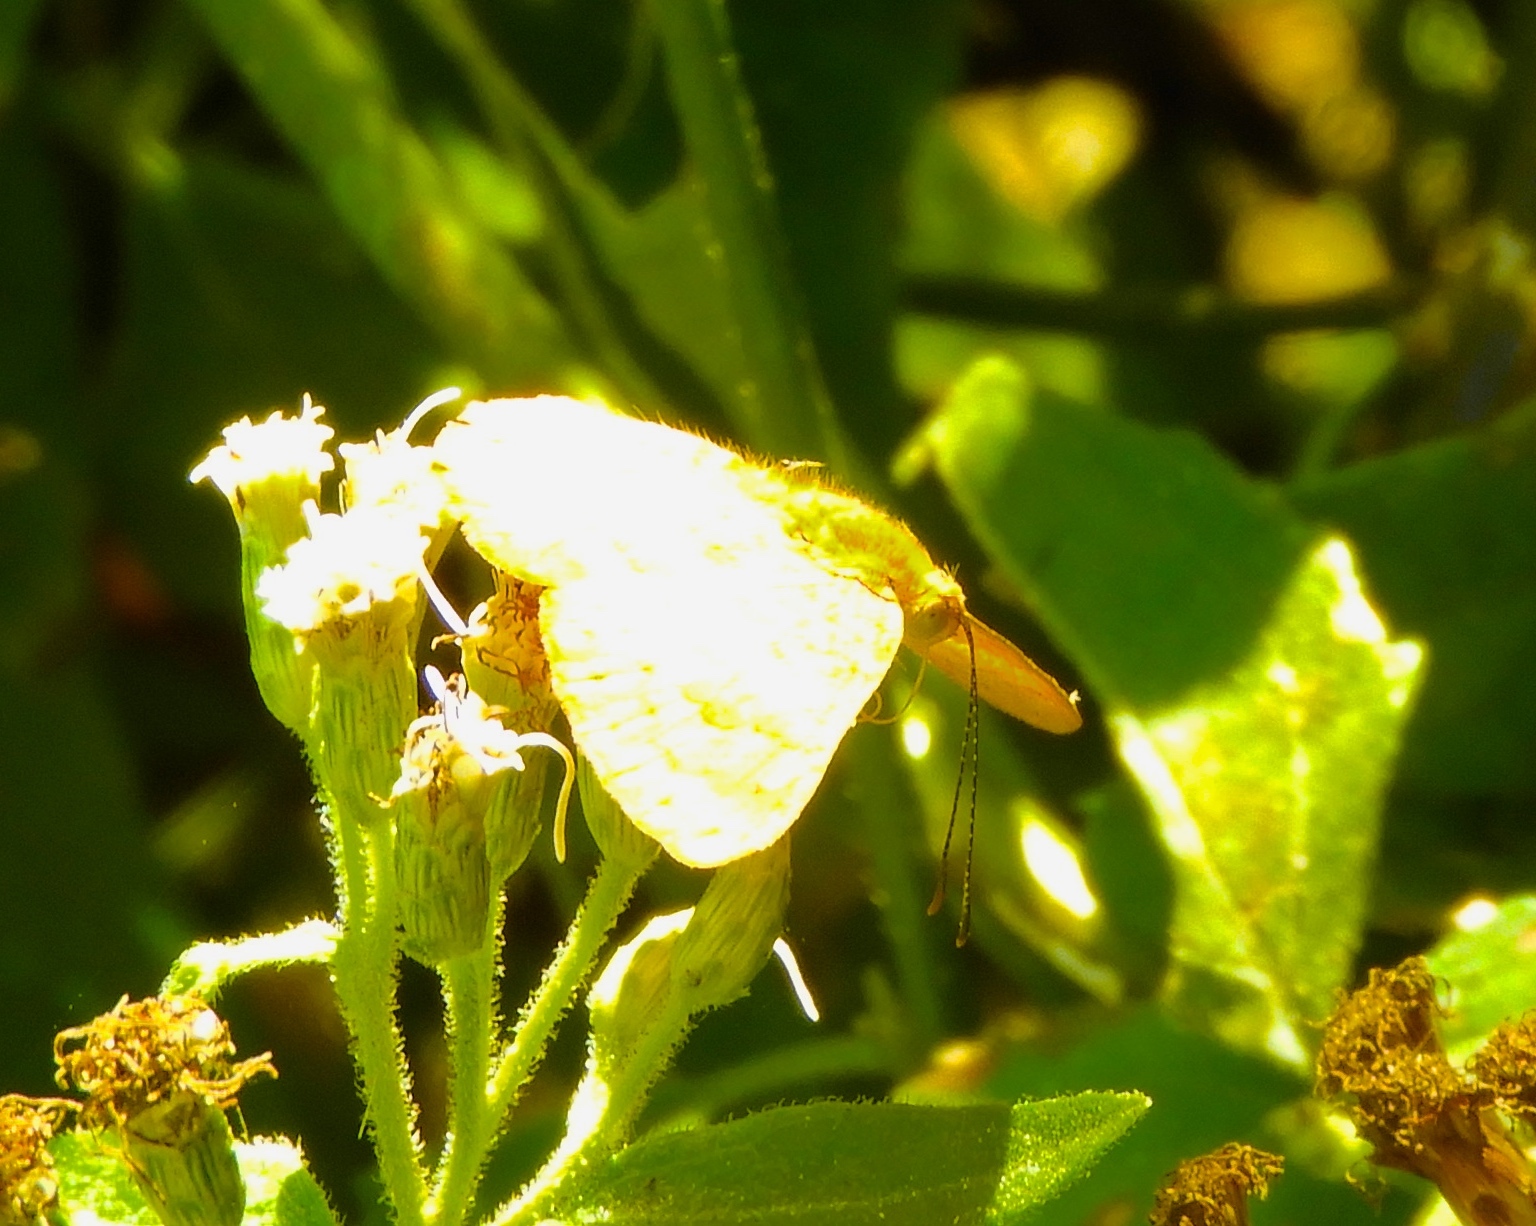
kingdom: Animalia
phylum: Arthropoda
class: Insecta
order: Lepidoptera
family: Lycaenidae
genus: Emesis
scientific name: Emesis
